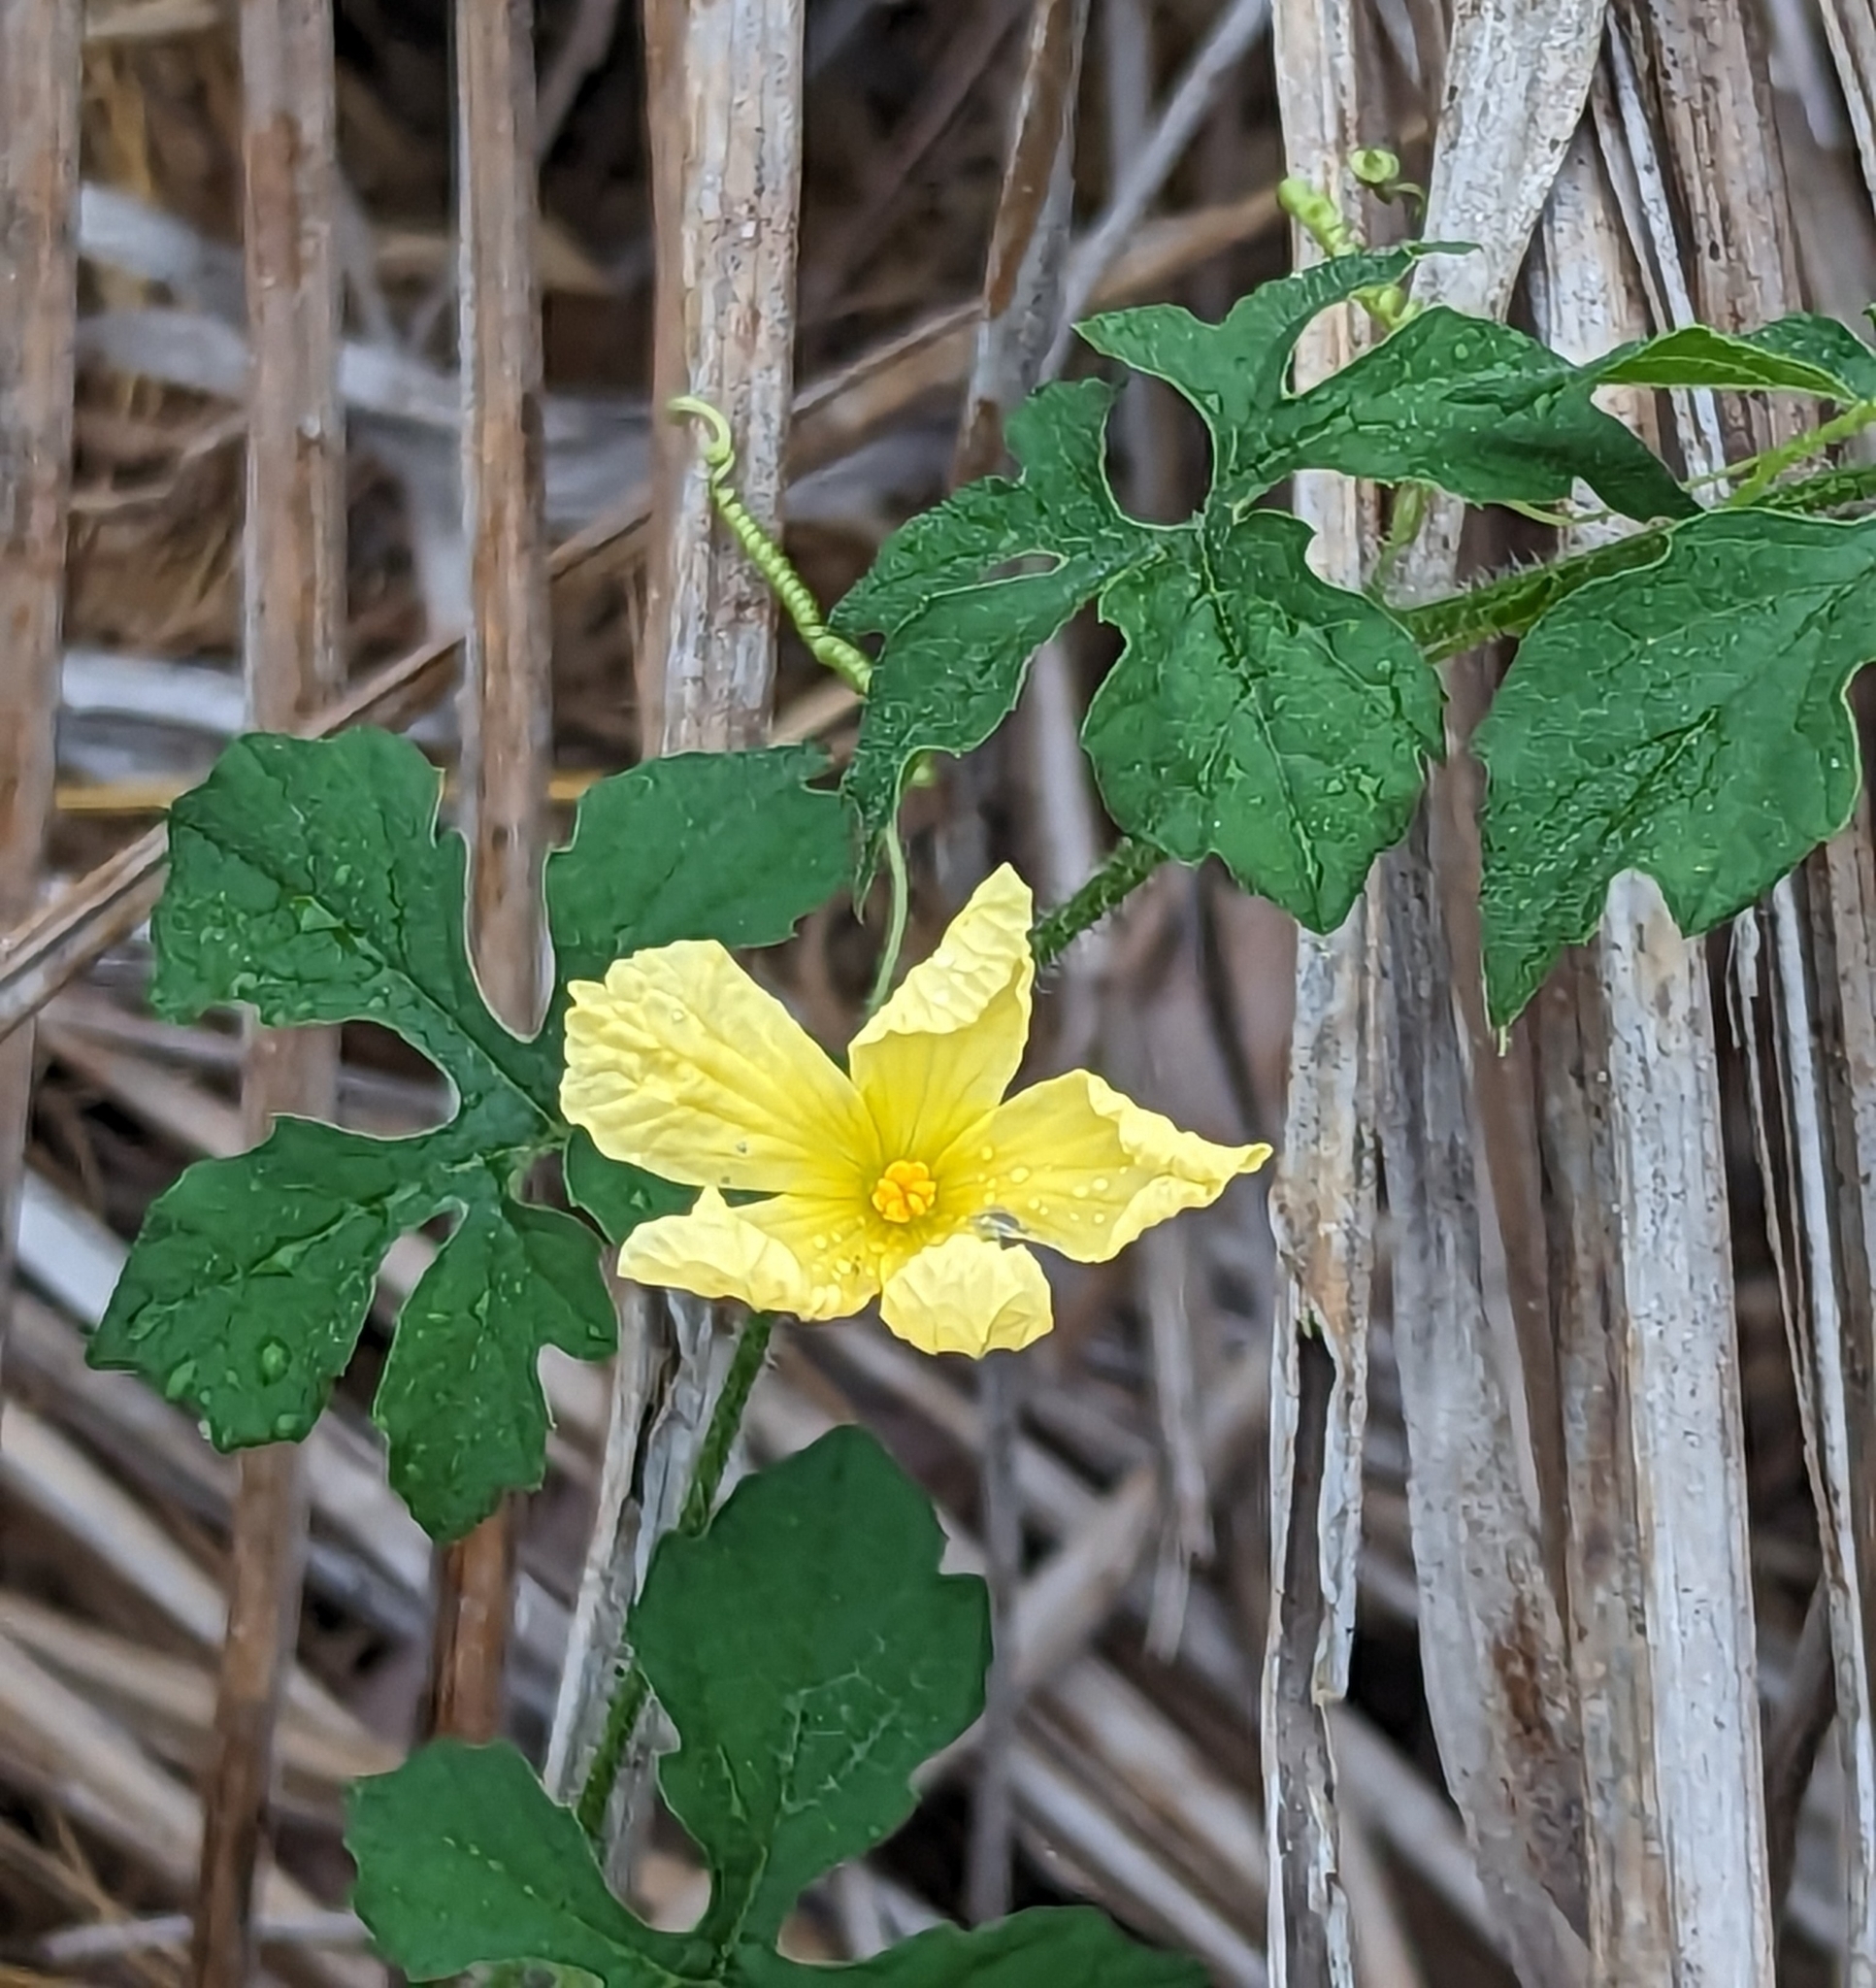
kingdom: Plantae
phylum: Tracheophyta
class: Magnoliopsida
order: Cucurbitales
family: Cucurbitaceae
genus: Momordica
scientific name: Momordica charantia
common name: Balsampear
